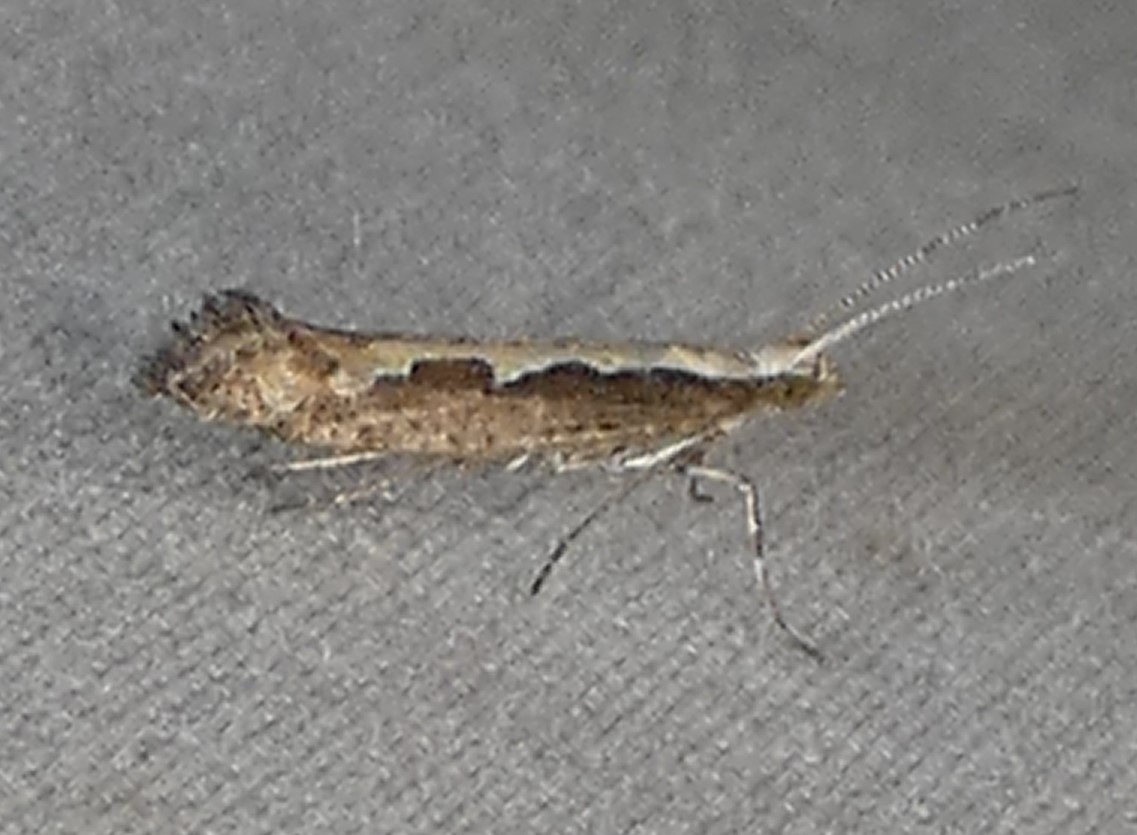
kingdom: Animalia
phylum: Arthropoda
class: Insecta
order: Lepidoptera
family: Plutellidae
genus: Plutella
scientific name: Plutella xylostella
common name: Diamond-back moth
